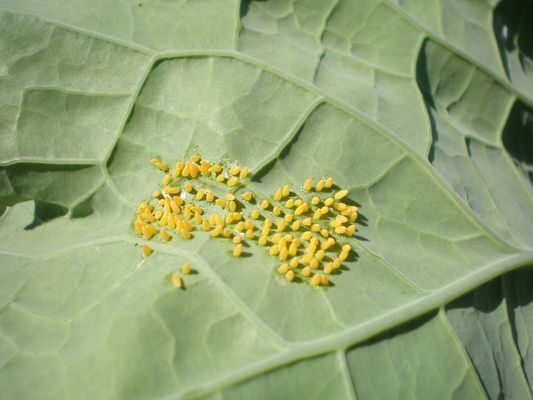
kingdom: Animalia
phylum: Arthropoda
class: Insecta
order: Lepidoptera
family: Pieridae
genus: Pieris
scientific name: Pieris brassicae
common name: Large white
